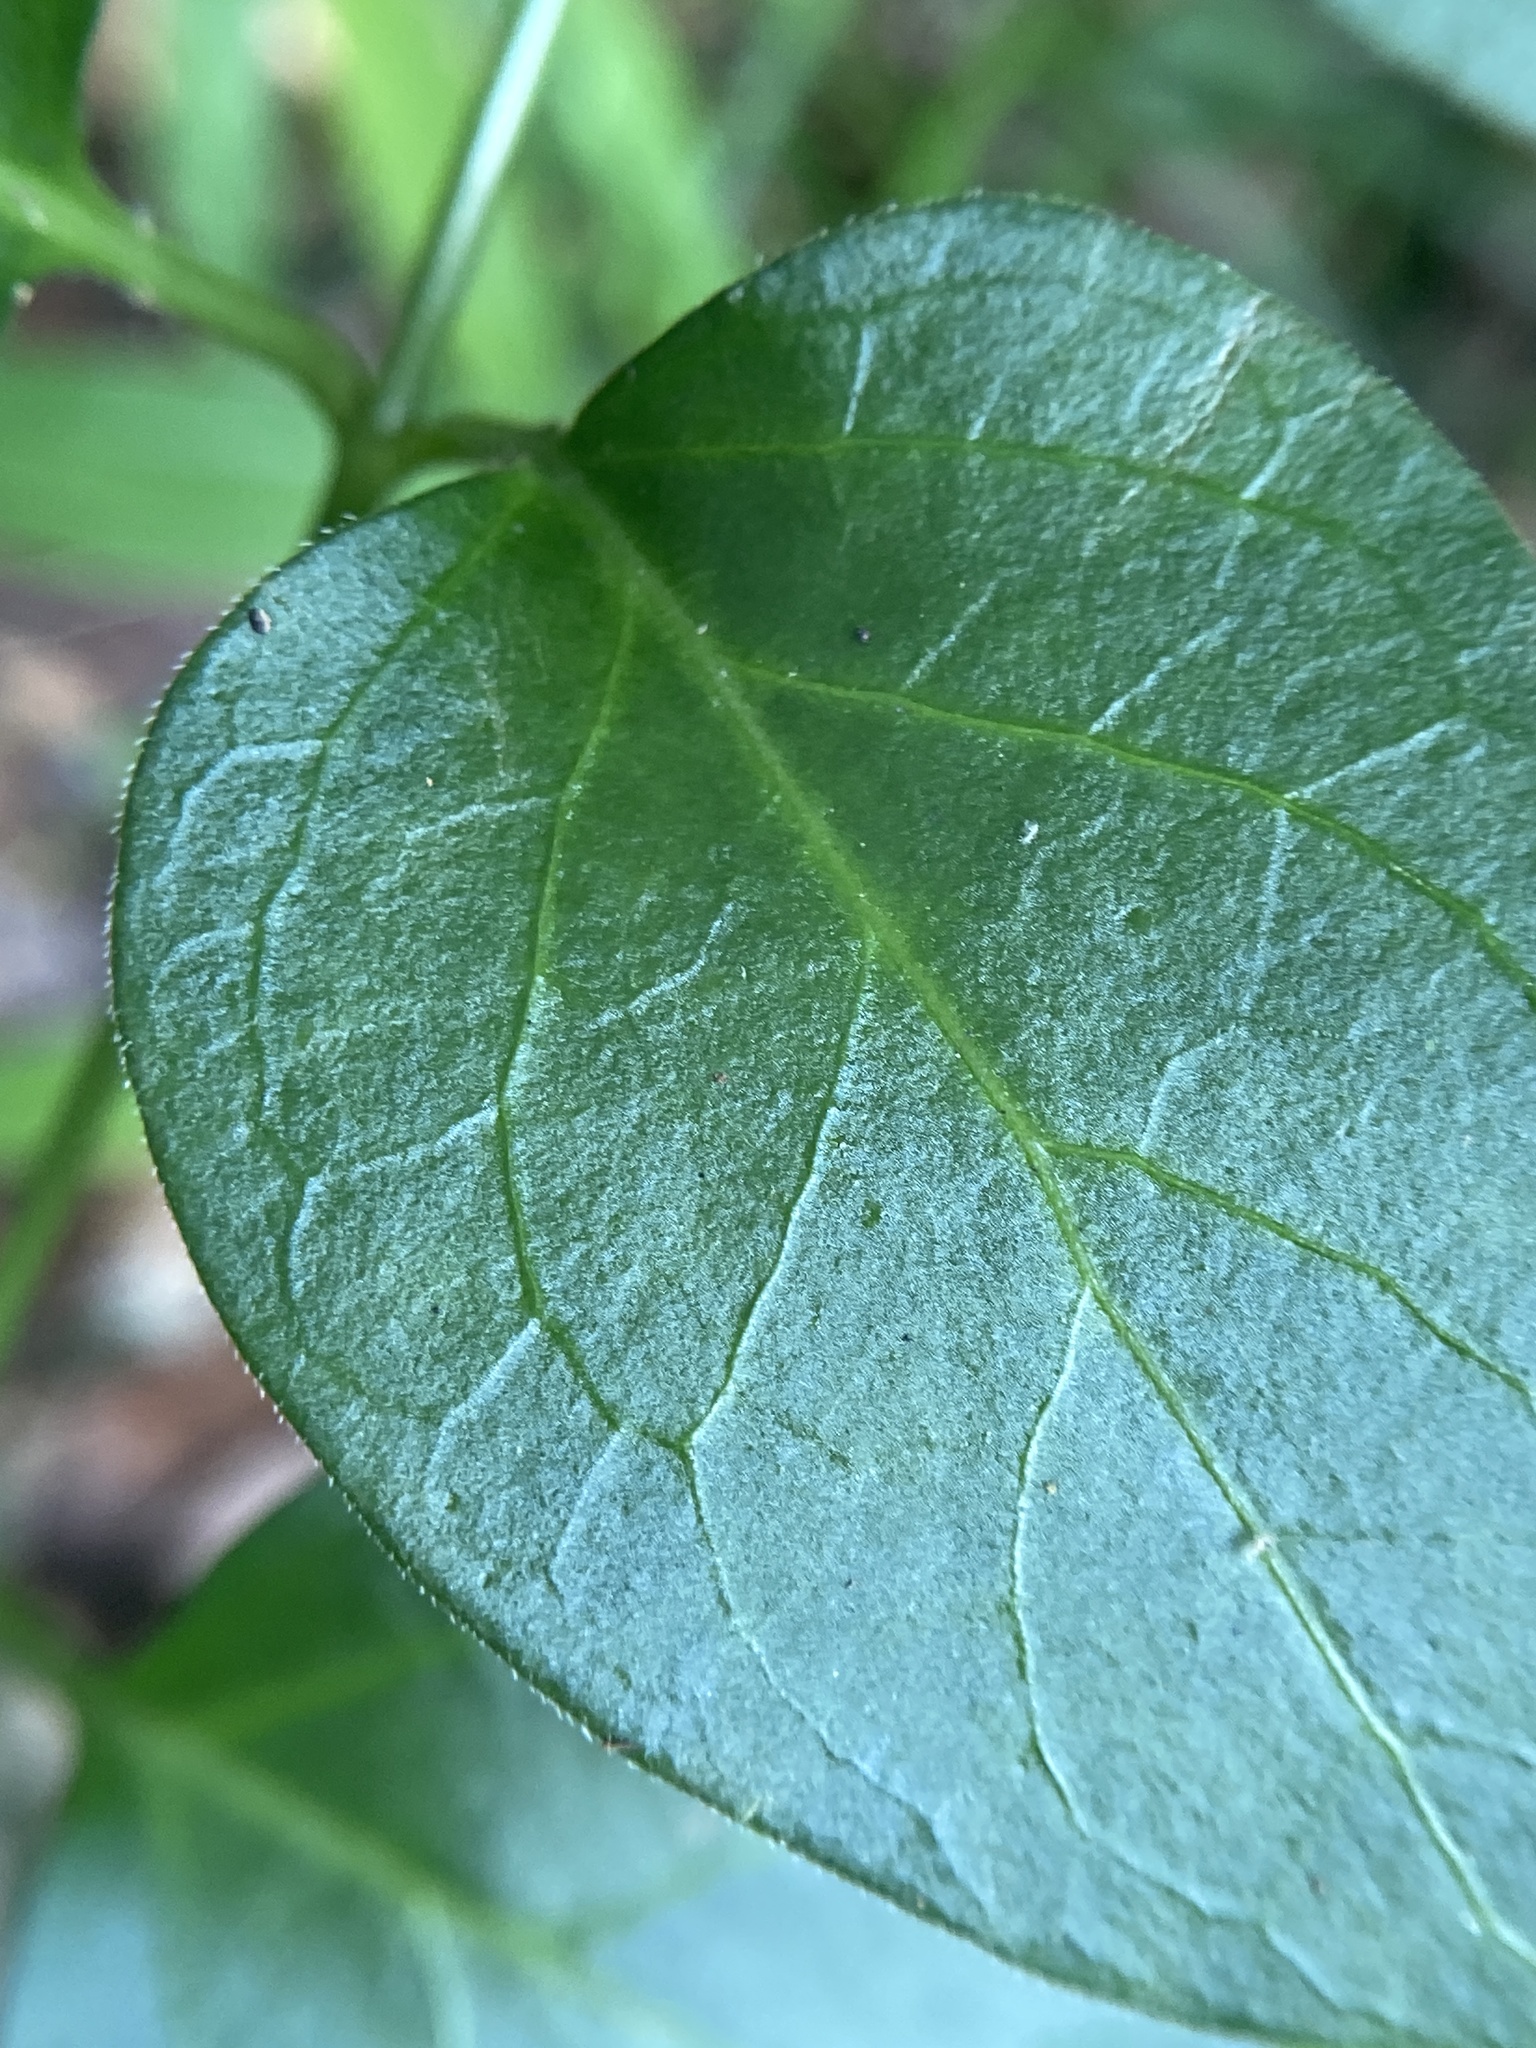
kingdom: Plantae
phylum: Tracheophyta
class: Magnoliopsida
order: Gentianales
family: Apocynaceae
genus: Vinca
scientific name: Vinca major
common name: Greater periwinkle
